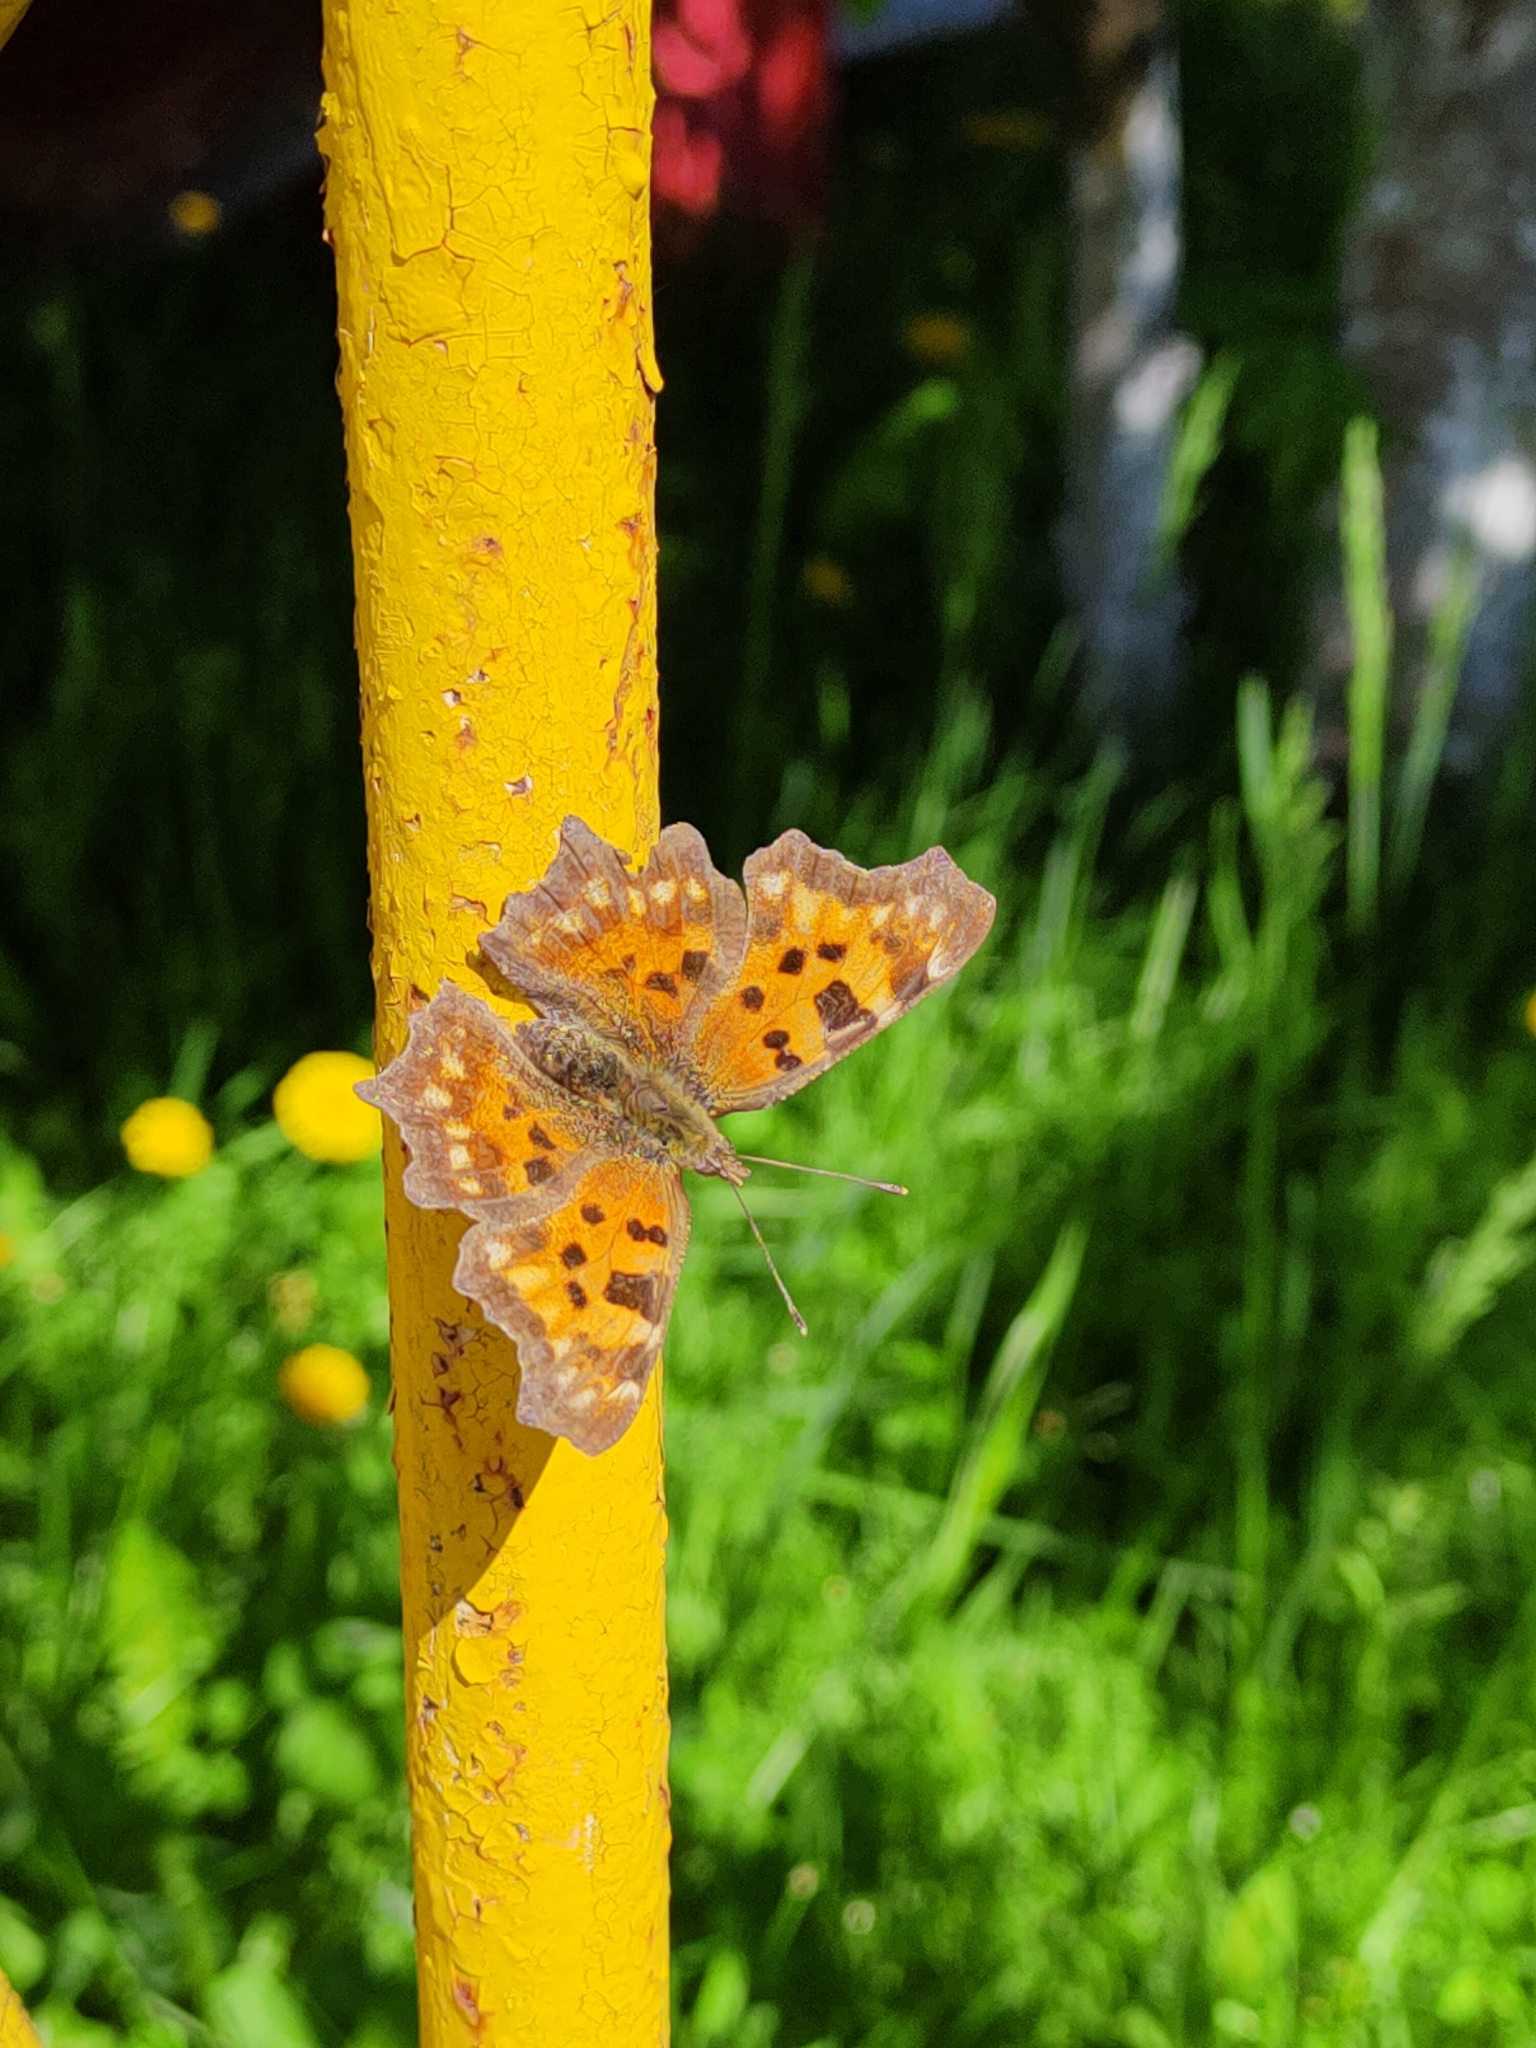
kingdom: Animalia
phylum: Arthropoda
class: Insecta
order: Lepidoptera
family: Nymphalidae
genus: Polygonia
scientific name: Polygonia c-album
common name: Comma
